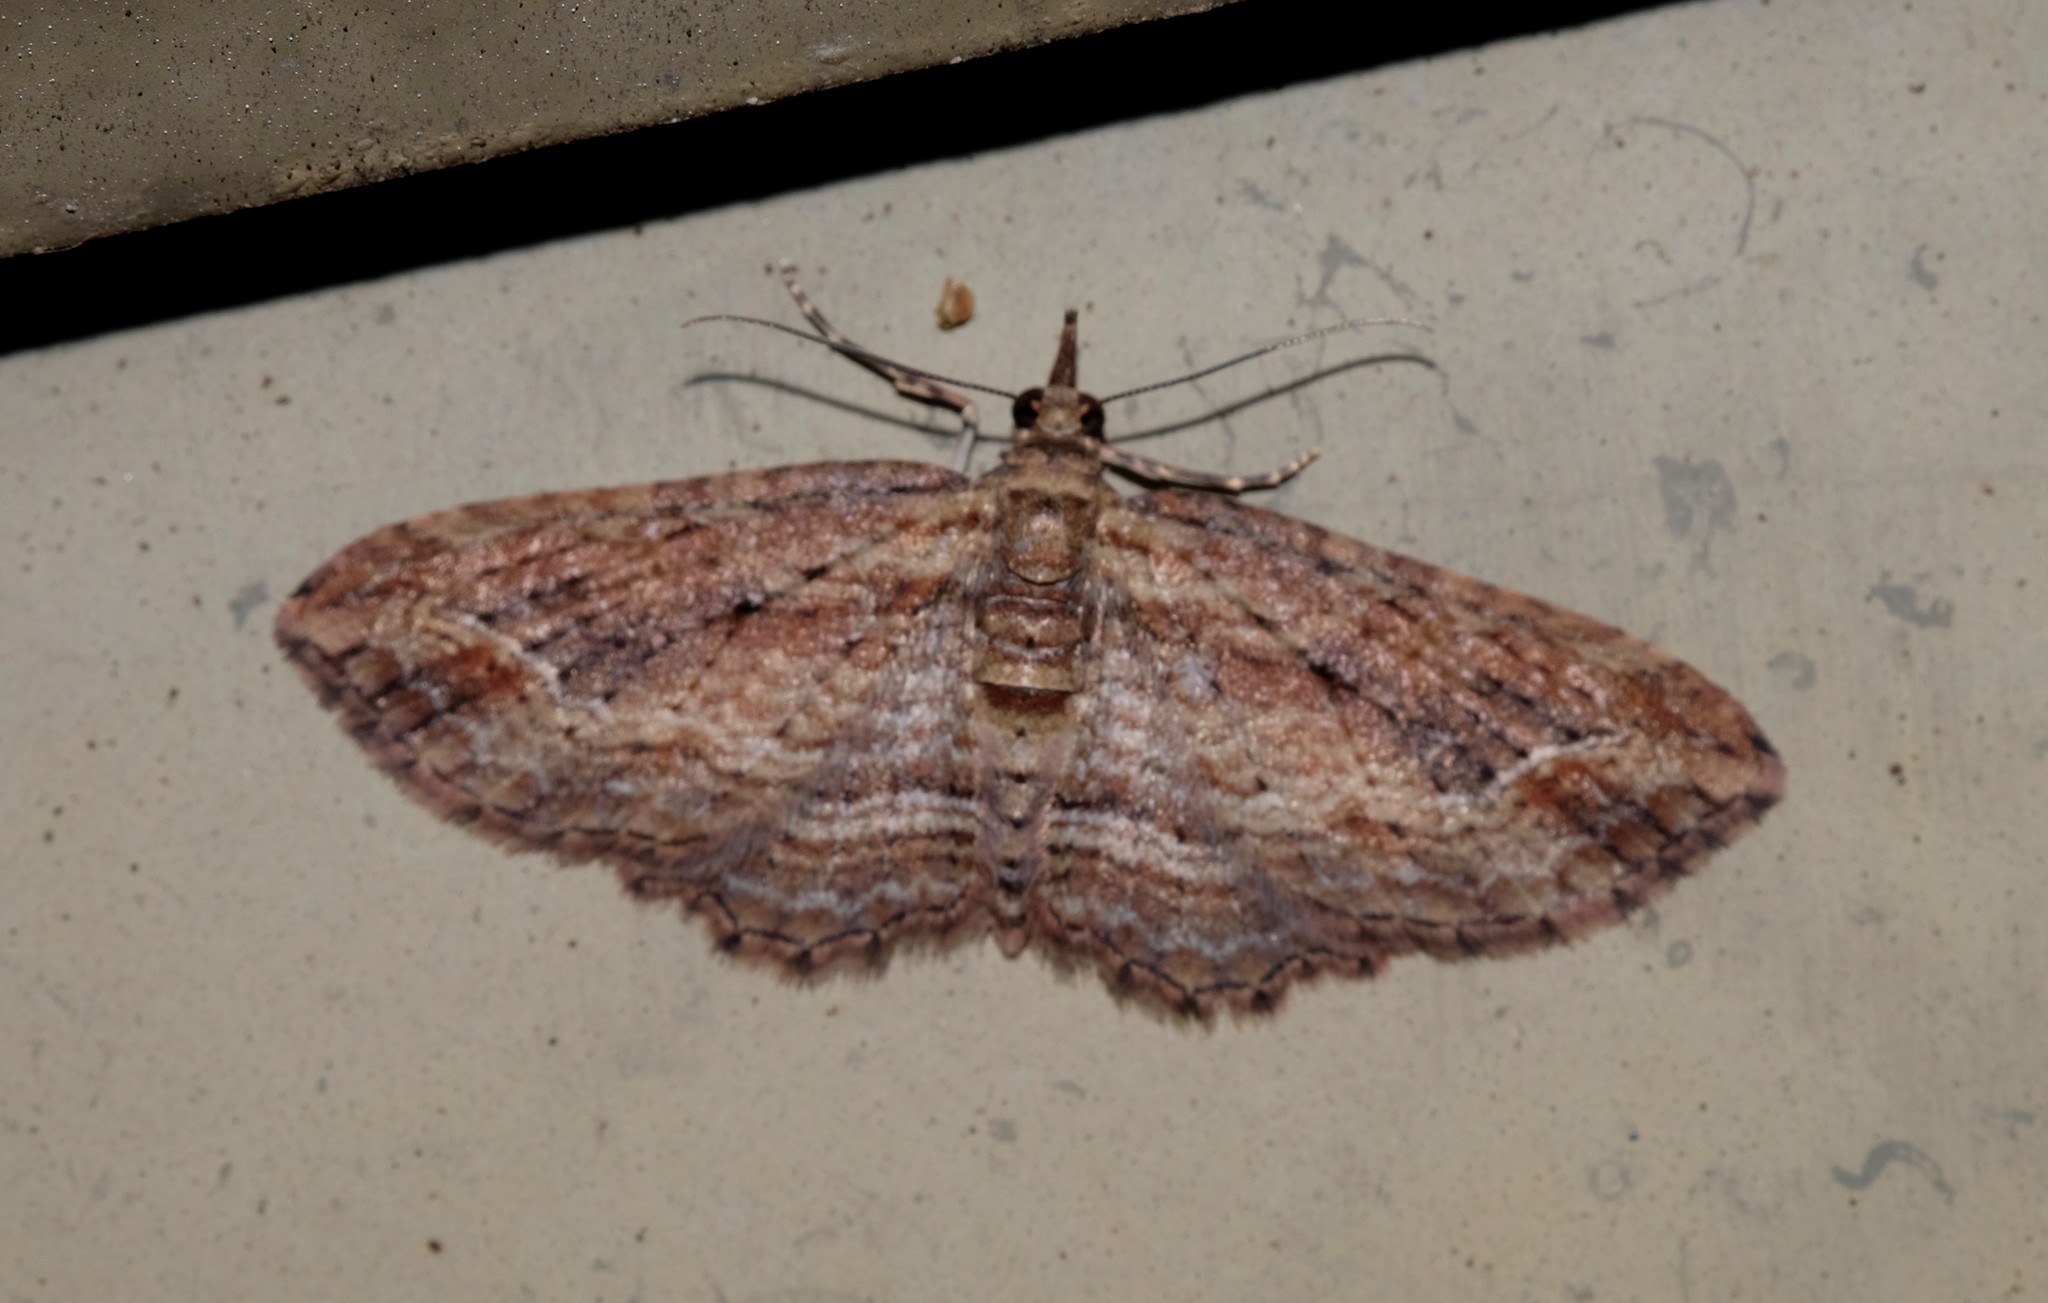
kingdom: Animalia
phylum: Arthropoda
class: Insecta
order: Lepidoptera
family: Geometridae
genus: Chloroclystis
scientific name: Chloroclystis filata
